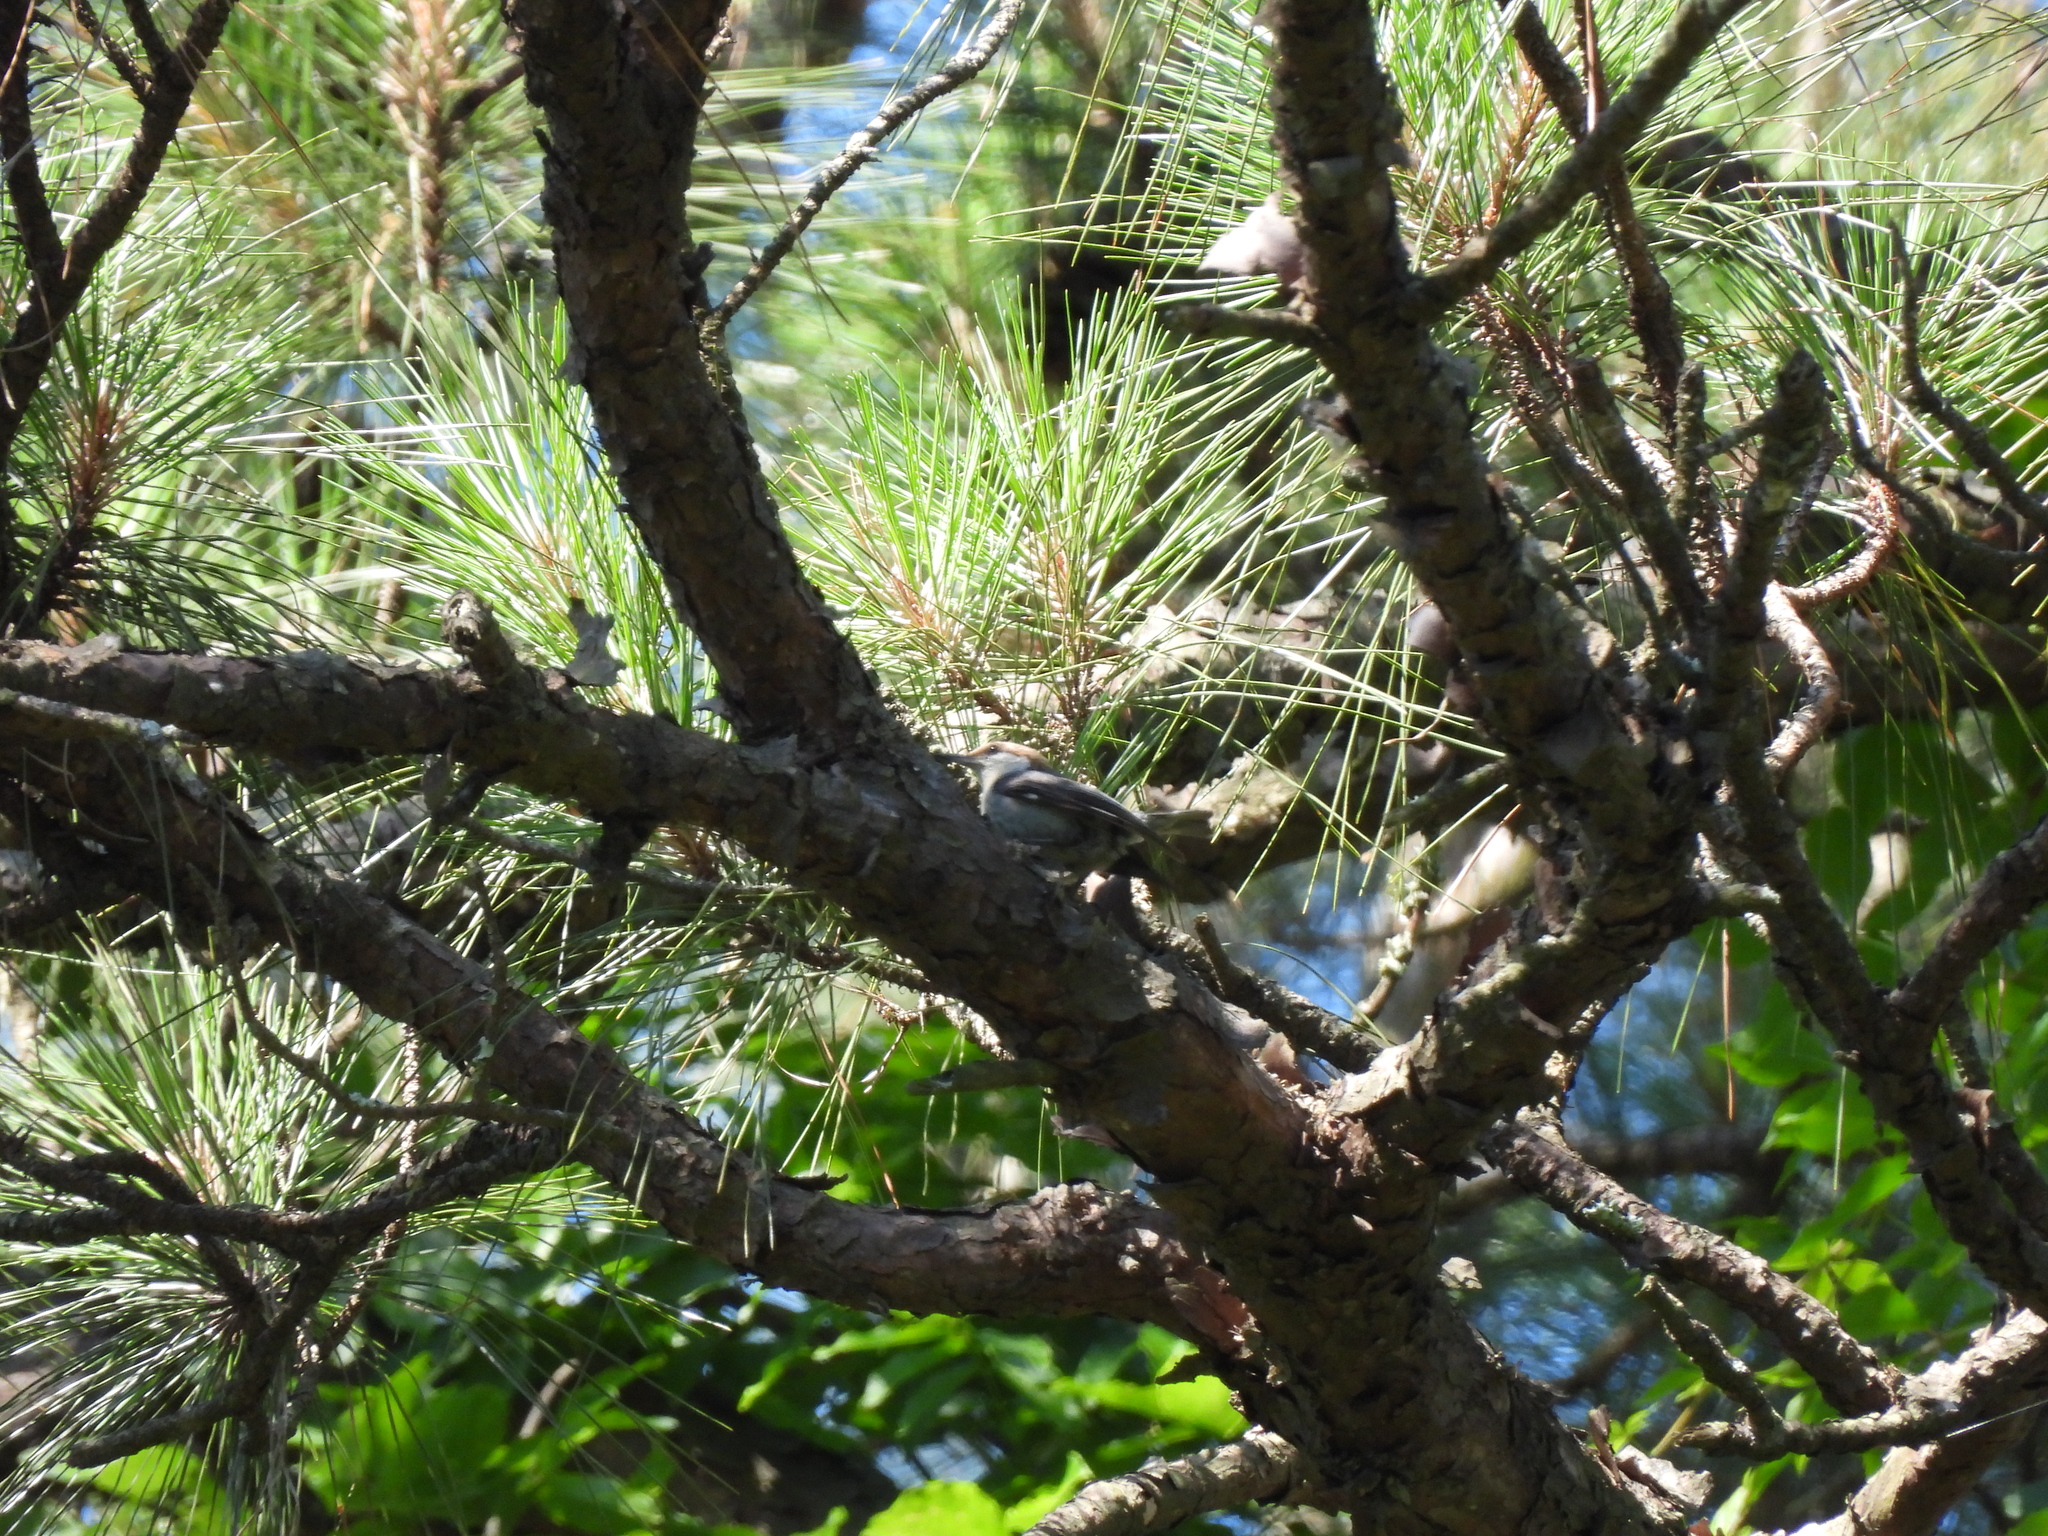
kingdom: Animalia
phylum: Chordata
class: Aves
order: Passeriformes
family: Sittidae
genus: Sitta
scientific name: Sitta pusilla
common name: Brown-headed nuthatch
